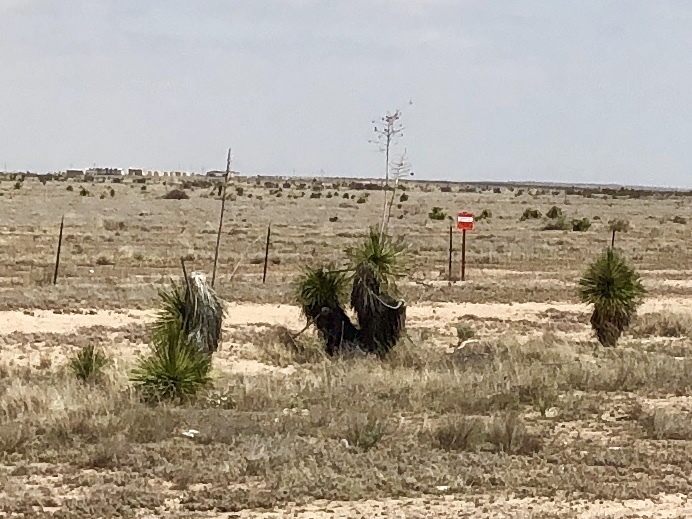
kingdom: Plantae
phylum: Tracheophyta
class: Liliopsida
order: Asparagales
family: Asparagaceae
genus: Yucca
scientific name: Yucca elata
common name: Palmella
